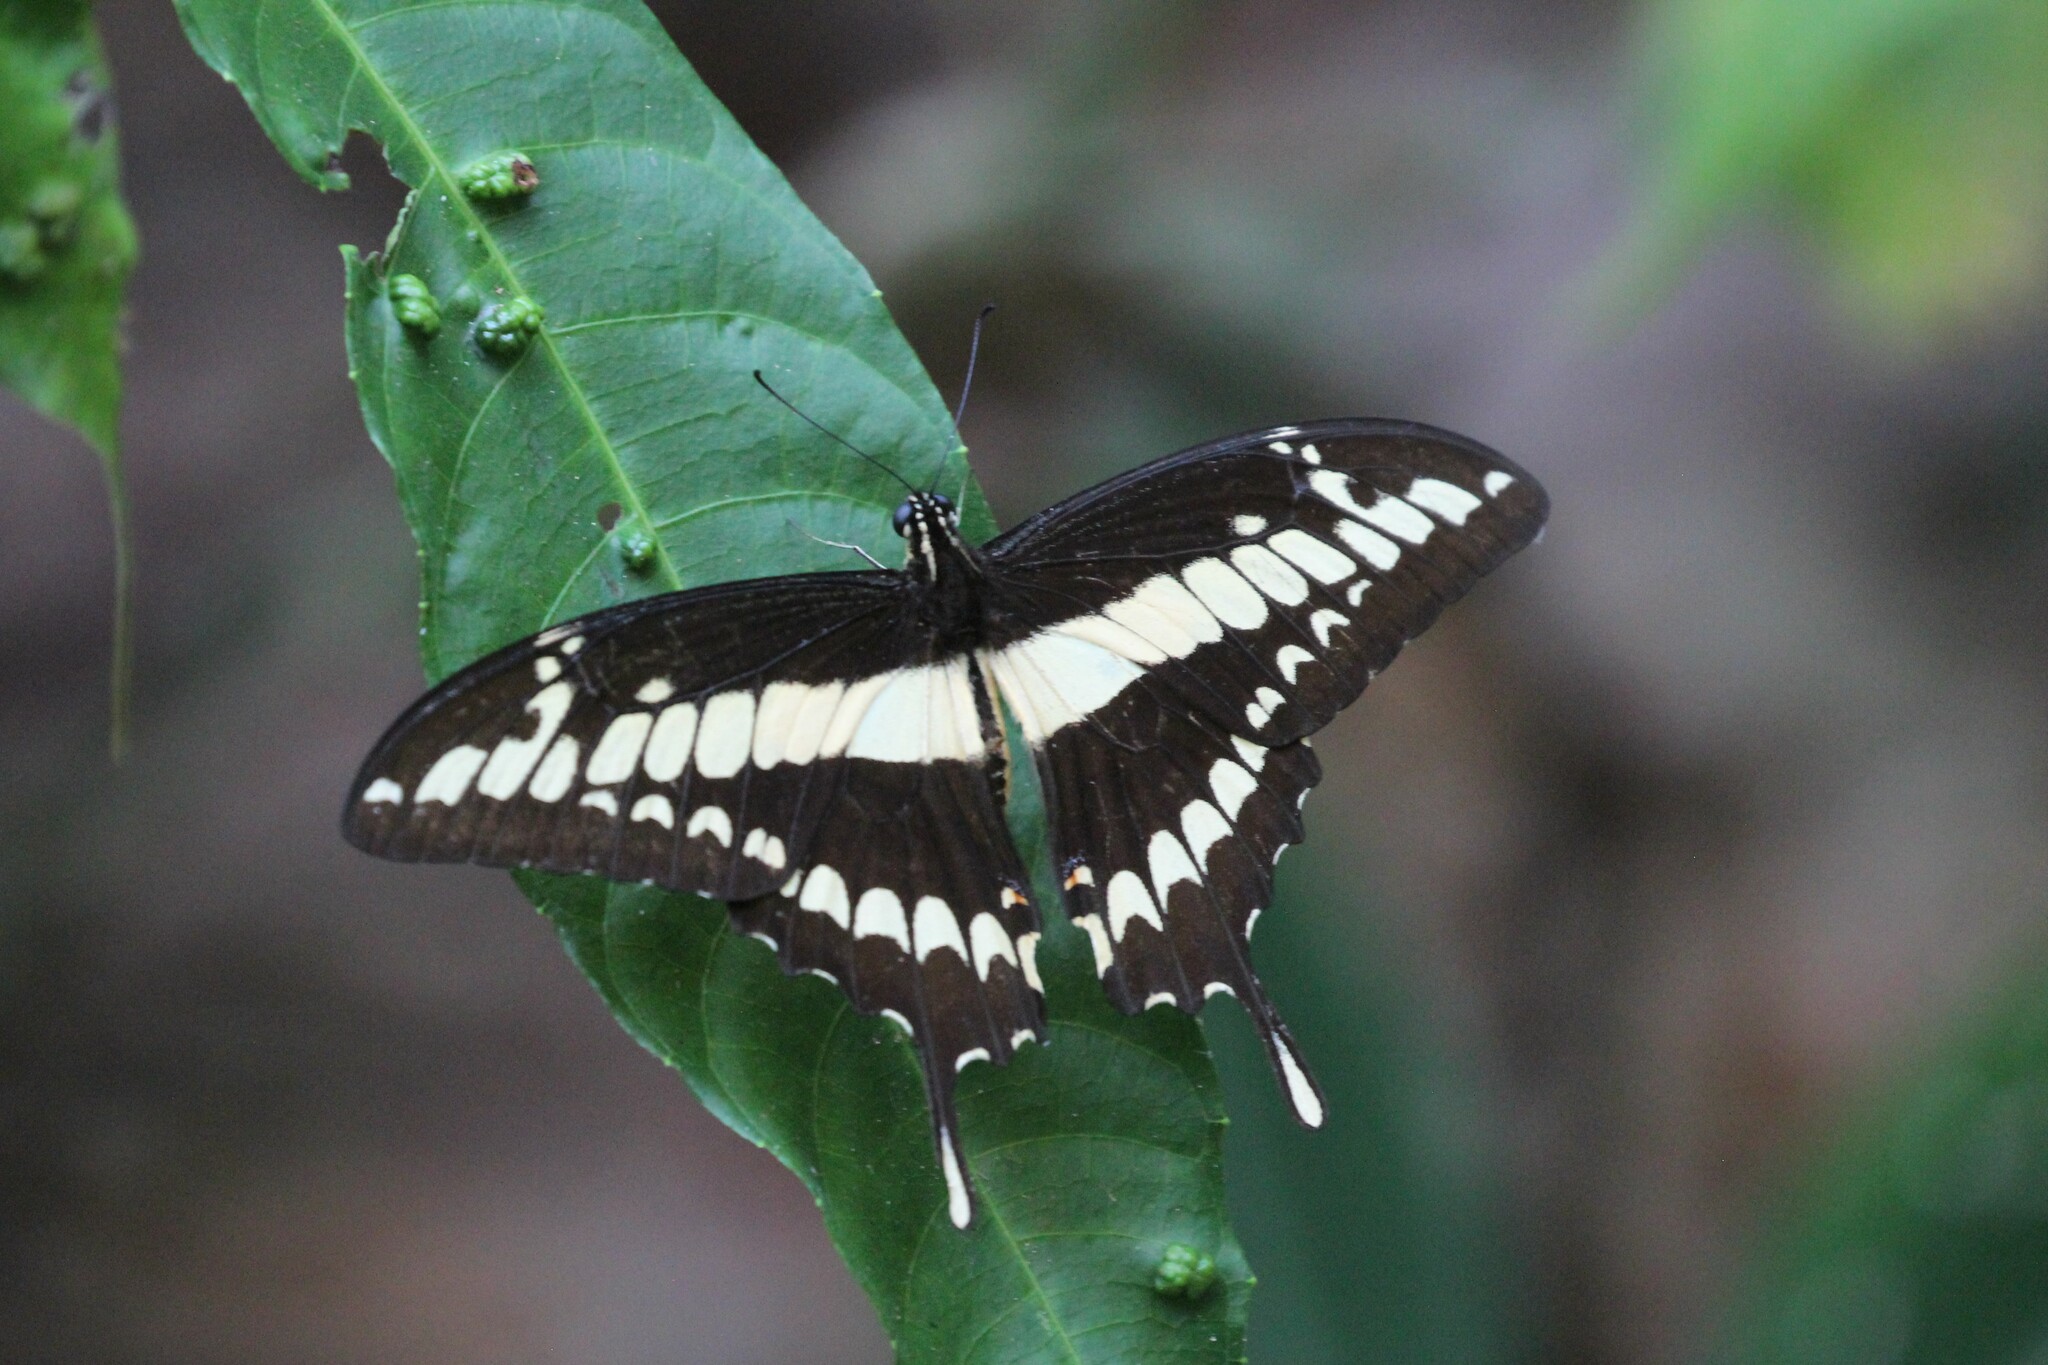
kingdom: Animalia
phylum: Arthropoda
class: Insecta
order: Lepidoptera
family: Papilionidae
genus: Papilio
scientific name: Papilio thoas
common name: King swallowtail
